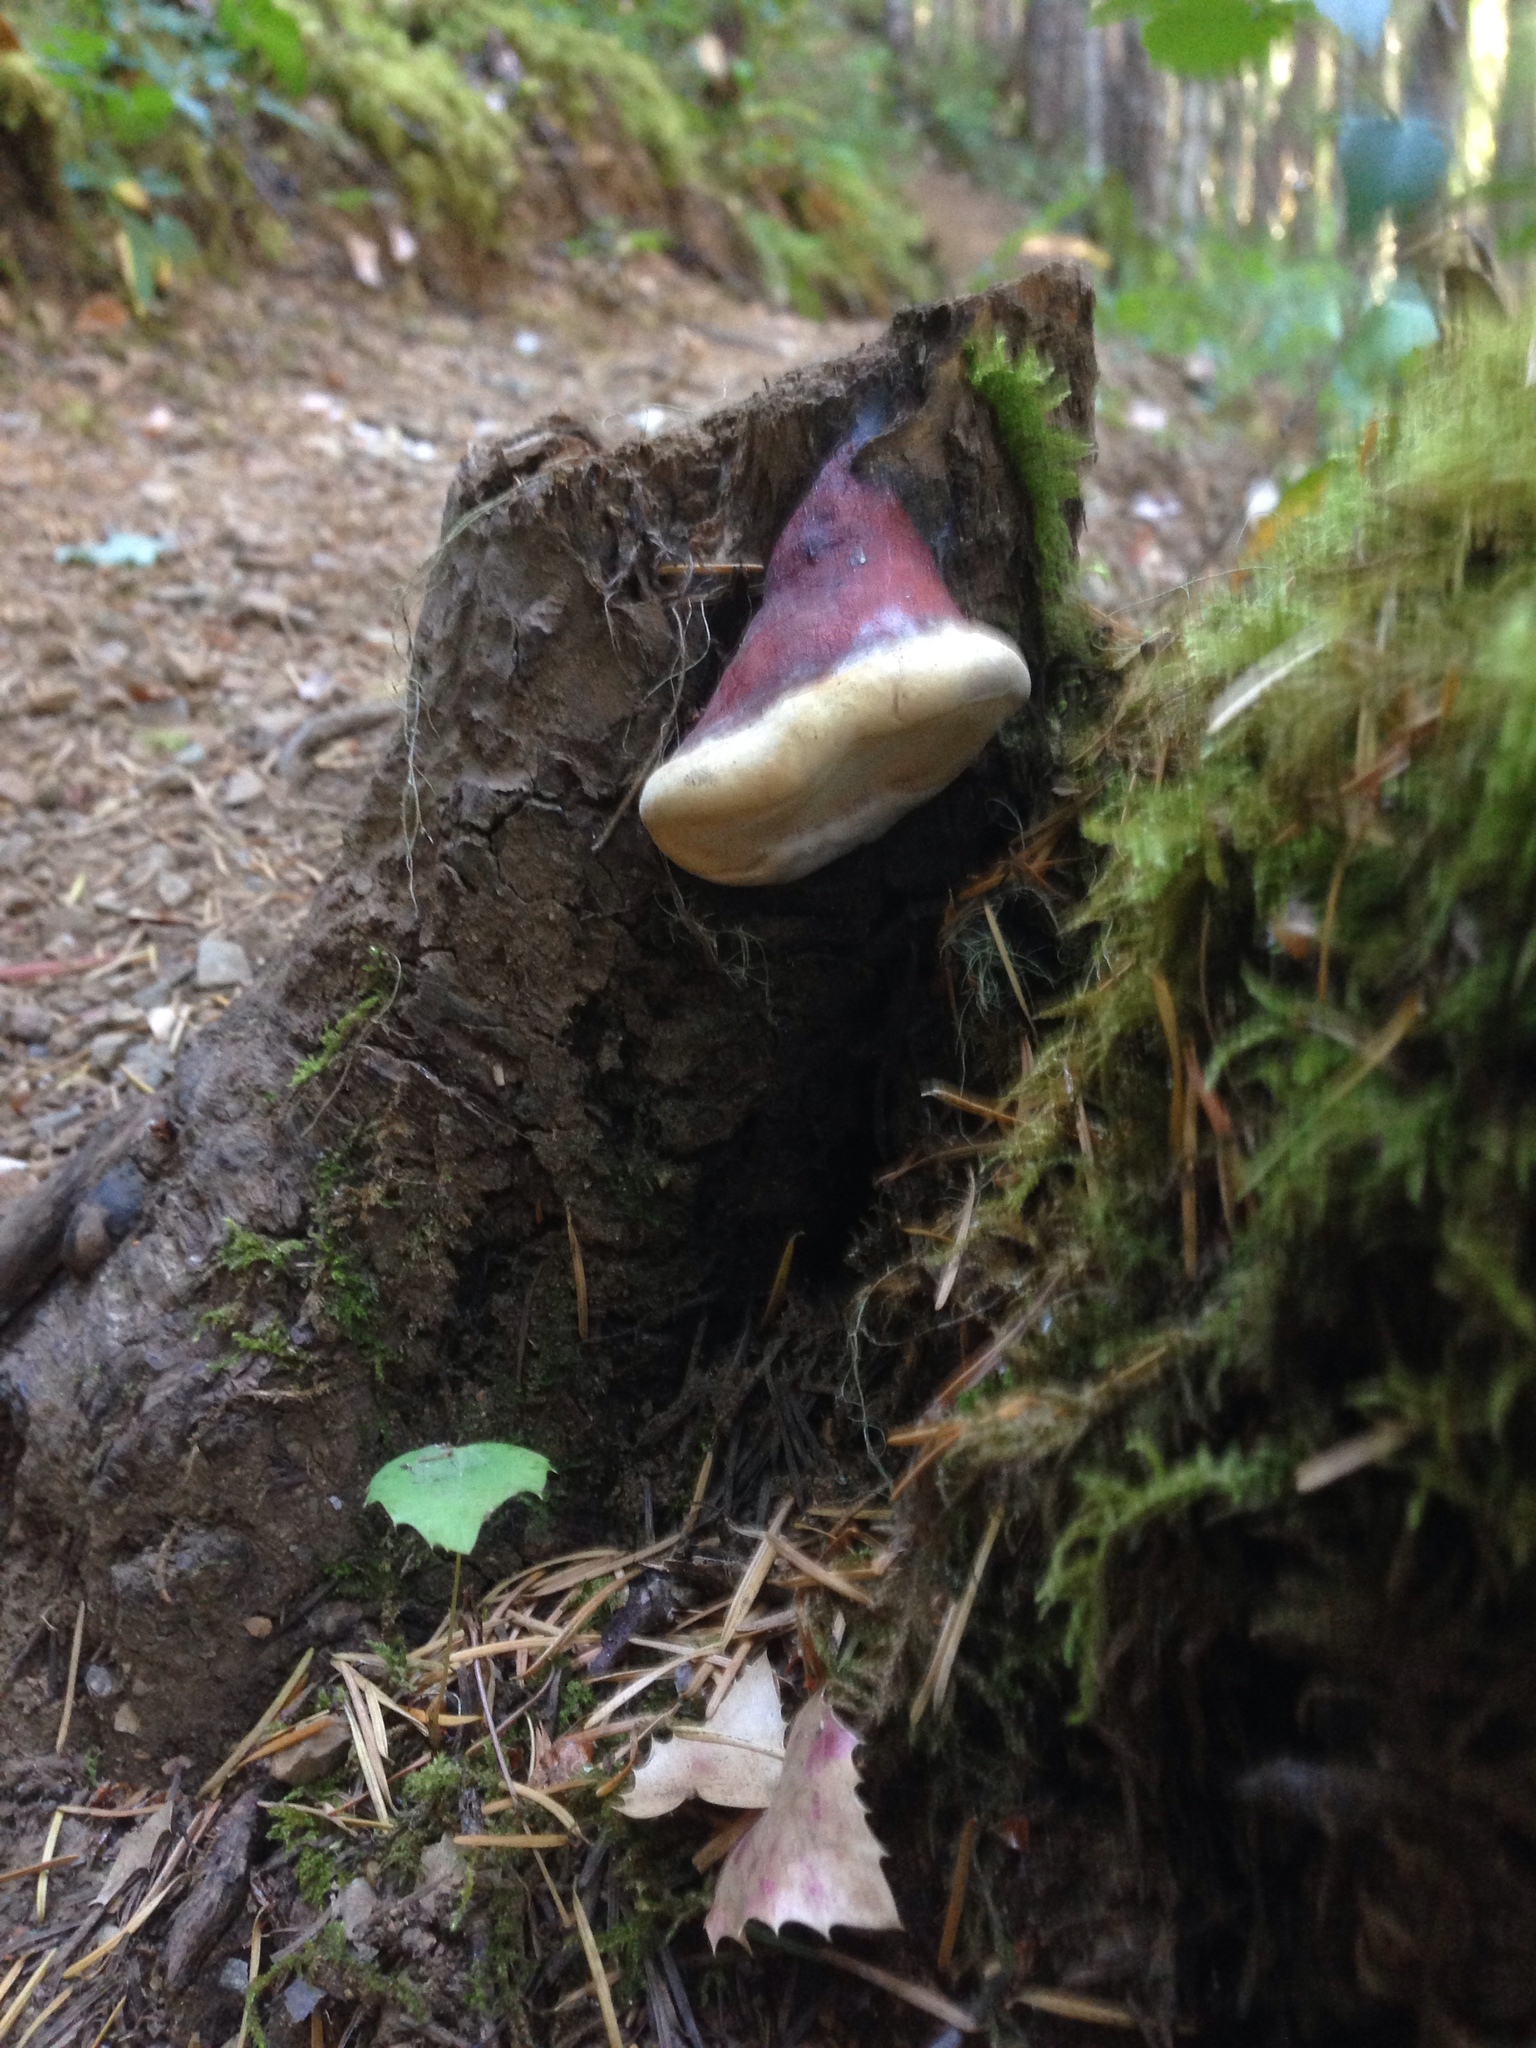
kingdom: Fungi
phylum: Basidiomycota
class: Agaricomycetes
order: Polyporales
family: Fomitopsidaceae
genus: Fomitopsis
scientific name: Fomitopsis mounceae
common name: Northern red belt
